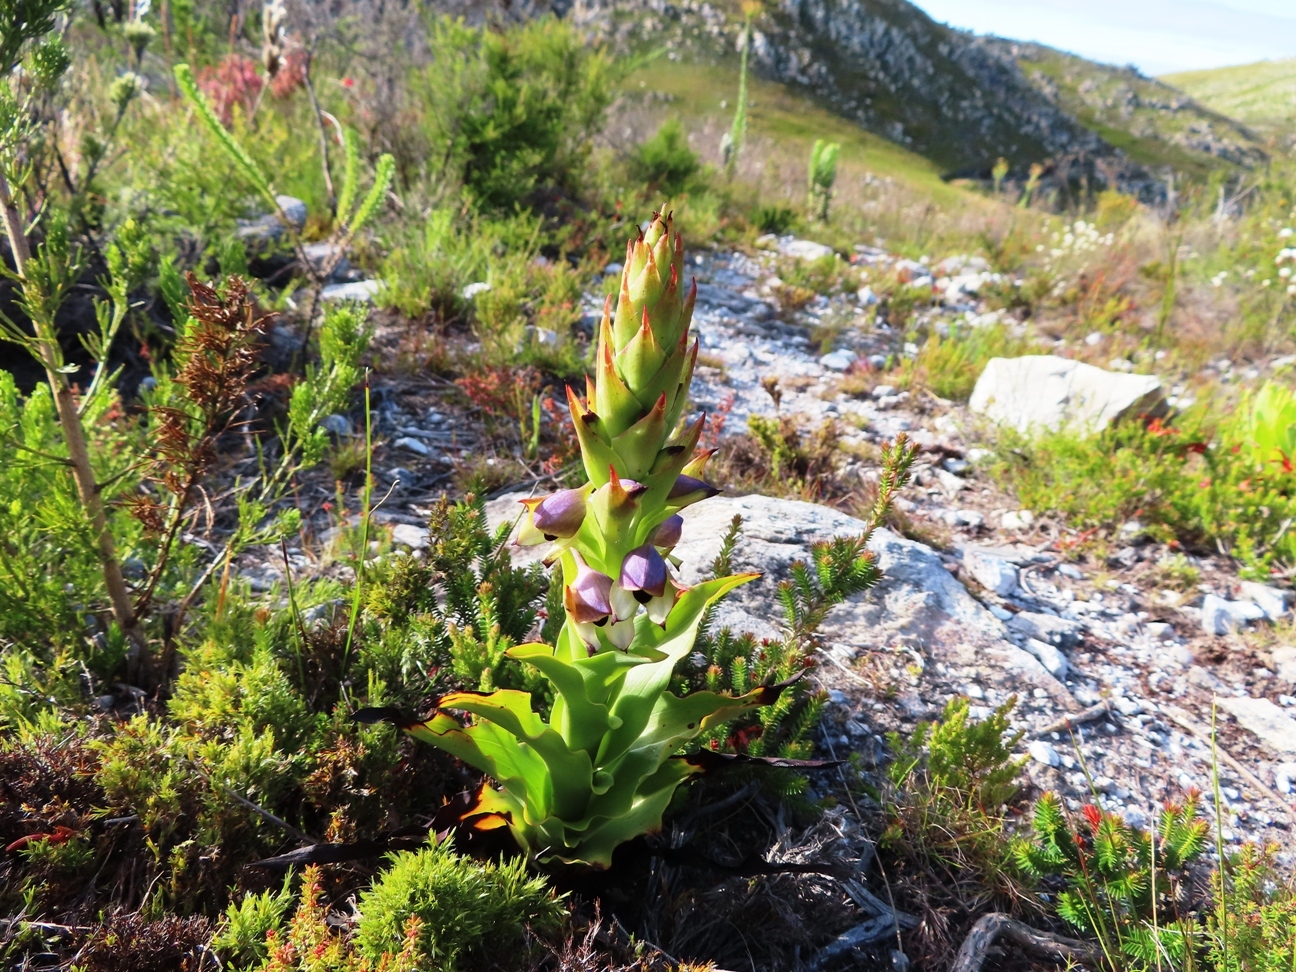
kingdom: Plantae
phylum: Tracheophyta
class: Liliopsida
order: Asparagales
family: Orchidaceae
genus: Disa
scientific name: Disa cornuta
